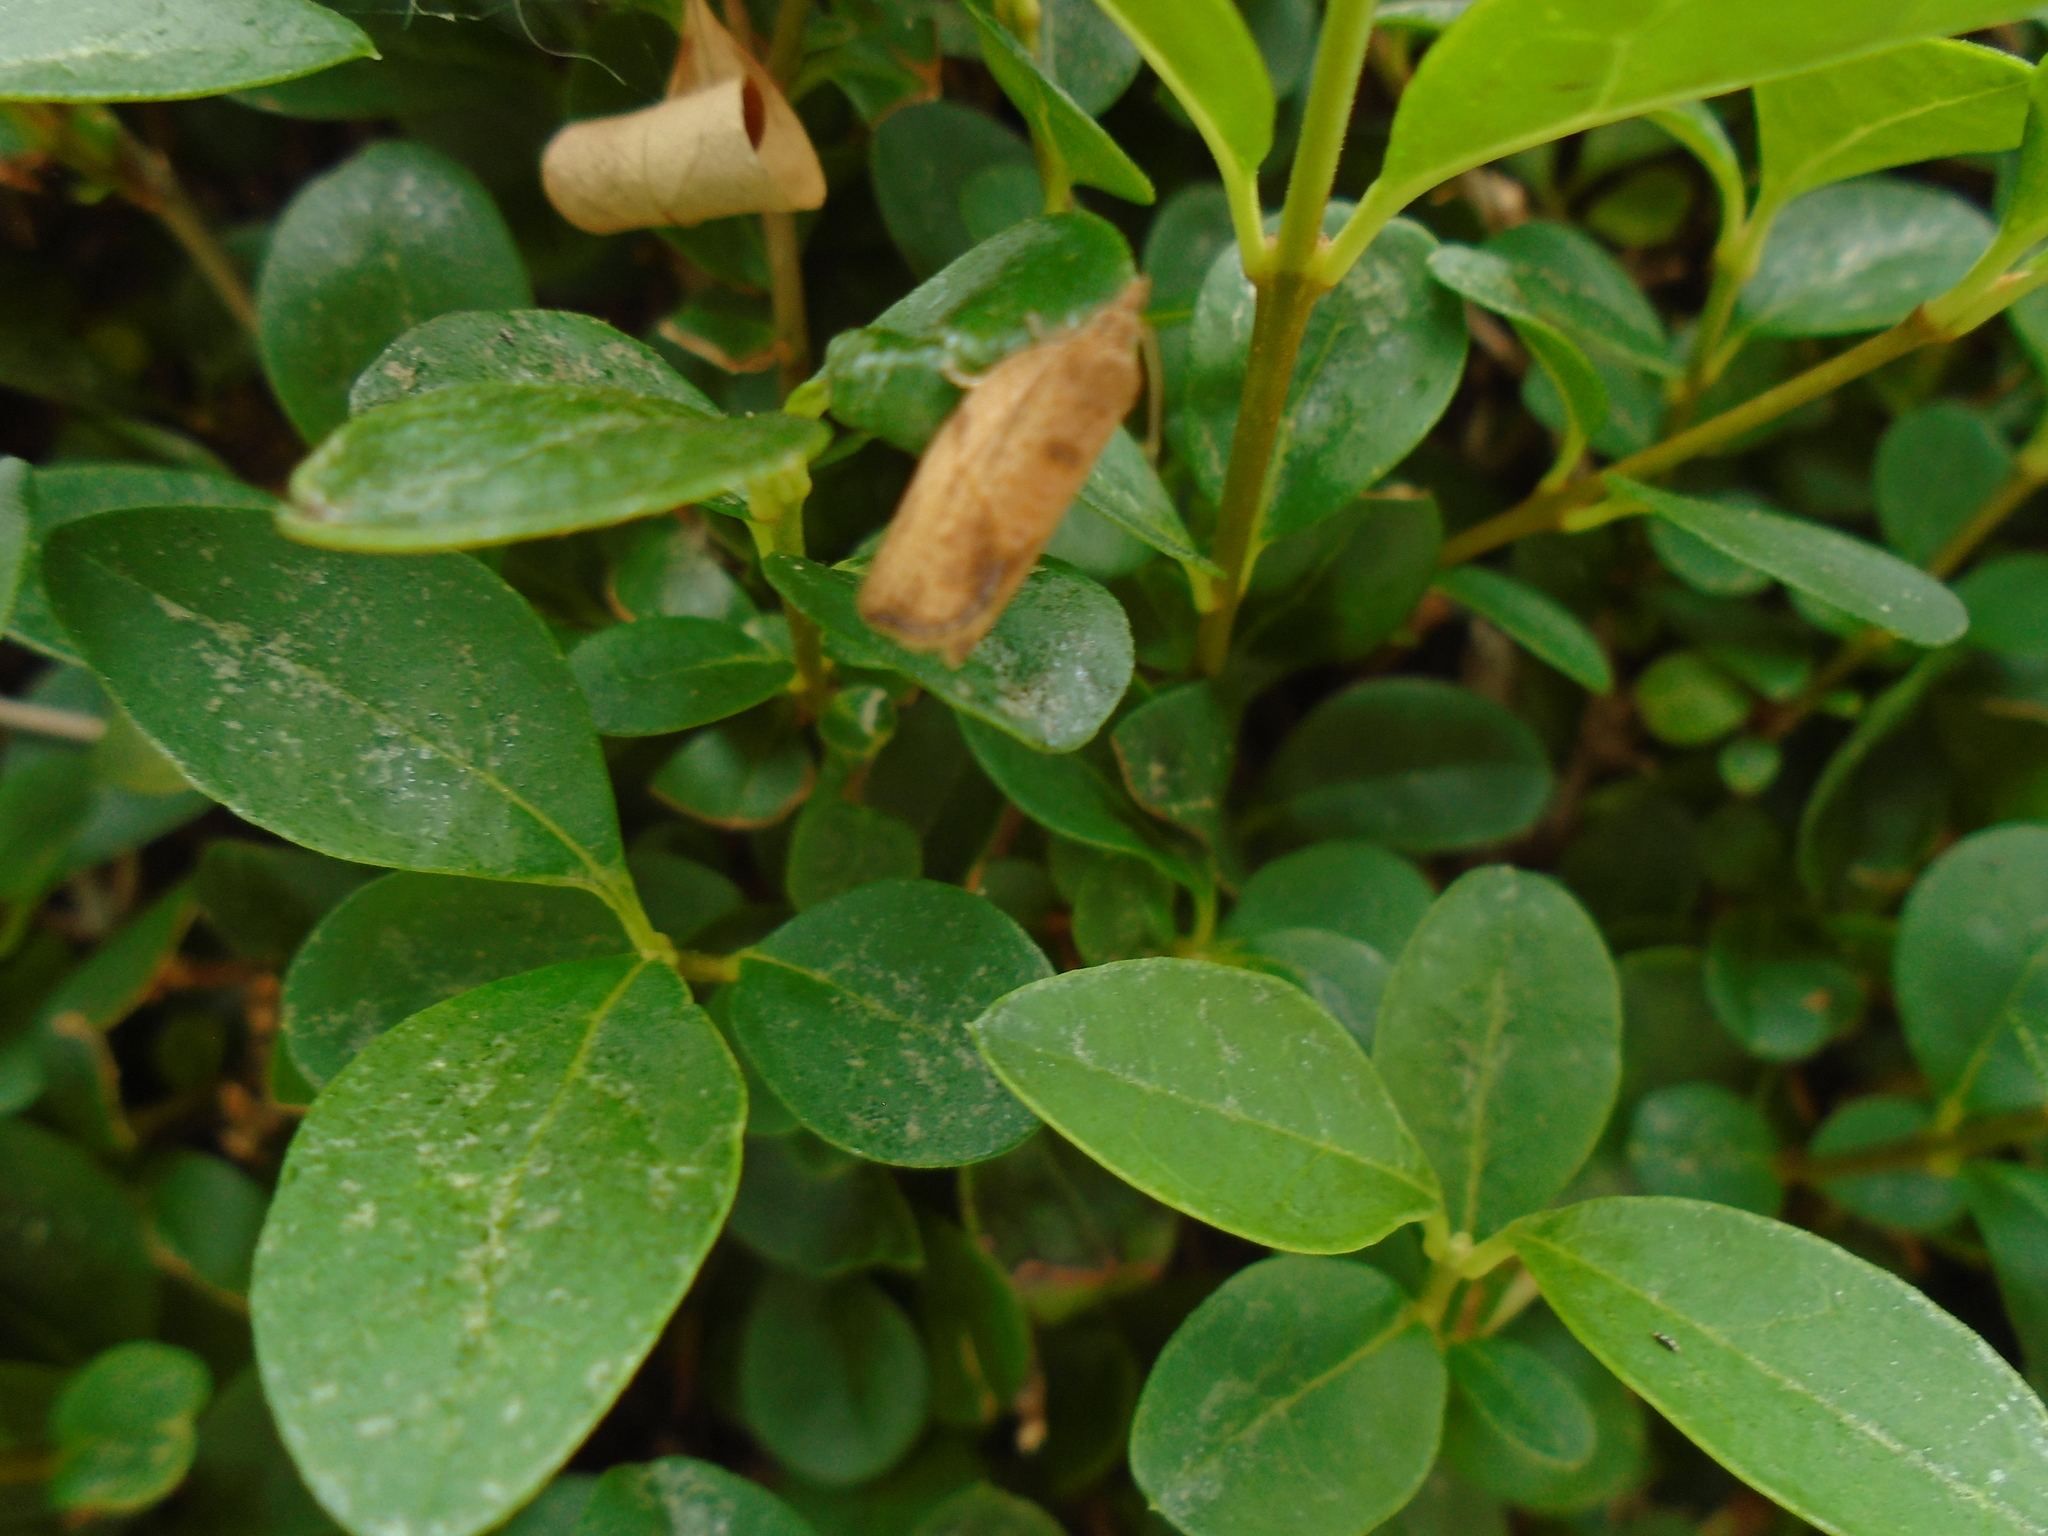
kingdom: Animalia
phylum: Arthropoda
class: Insecta
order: Lepidoptera
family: Tortricidae
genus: Epiphyas
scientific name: Epiphyas postvittana
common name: Light brown apple moth
